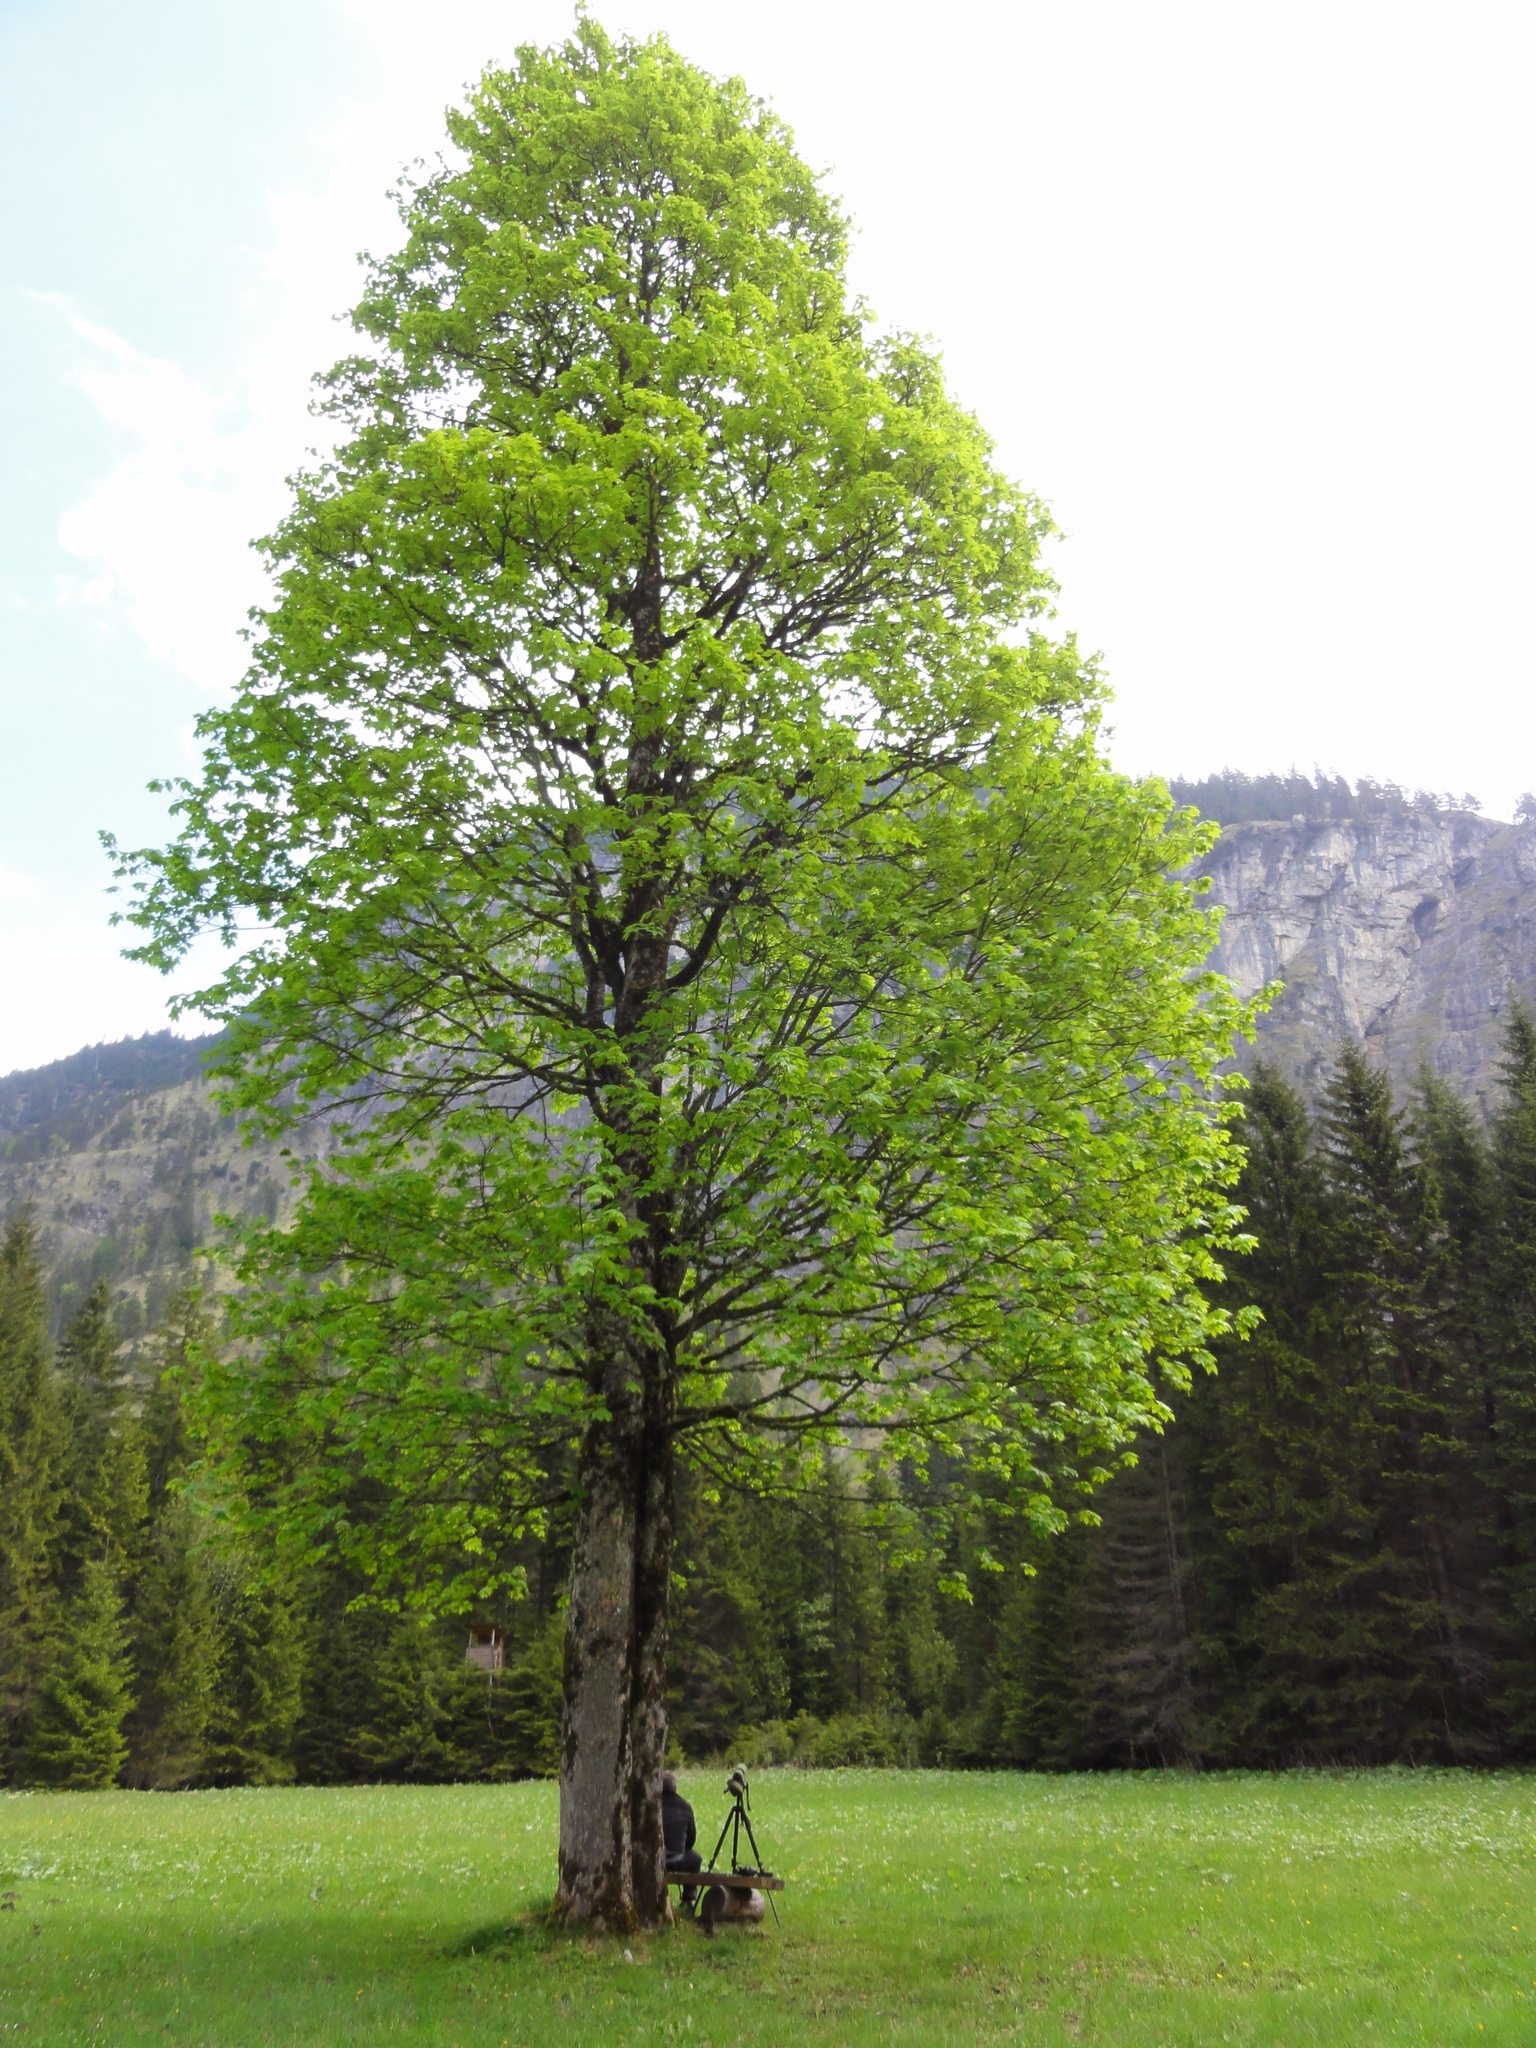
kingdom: Plantae
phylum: Tracheophyta
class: Magnoliopsida
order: Sapindales
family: Sapindaceae
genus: Acer
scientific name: Acer pseudoplatanus
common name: Sycamore
